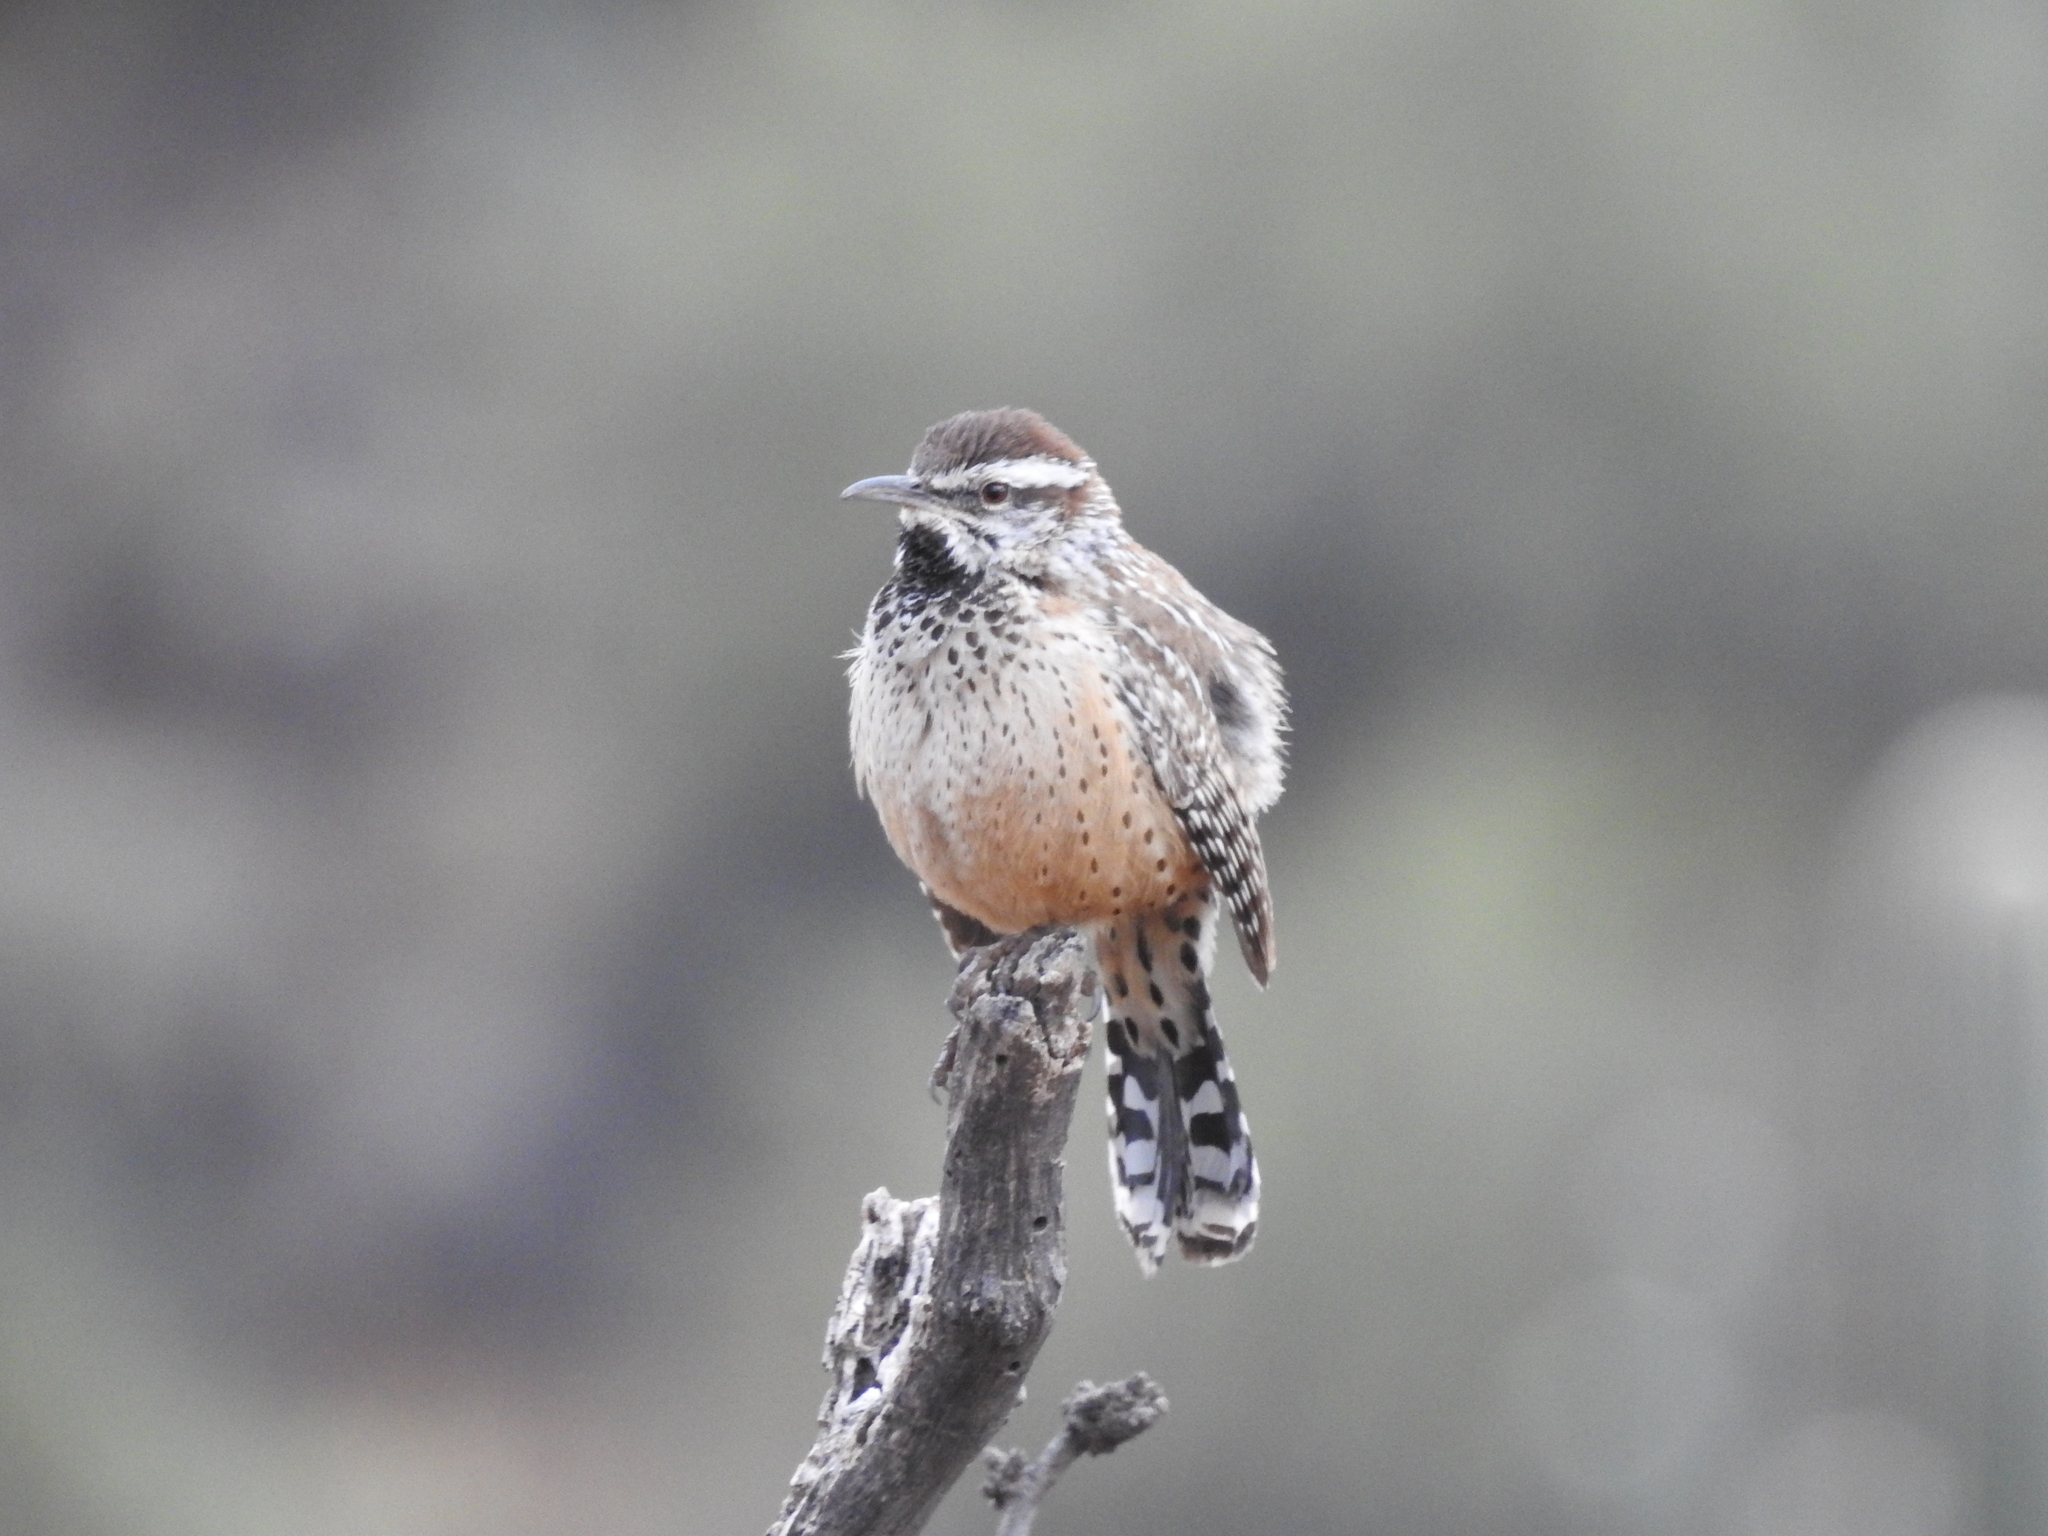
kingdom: Animalia
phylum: Chordata
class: Aves
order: Passeriformes
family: Troglodytidae
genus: Campylorhynchus
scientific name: Campylorhynchus brunneicapillus
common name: Cactus wren
